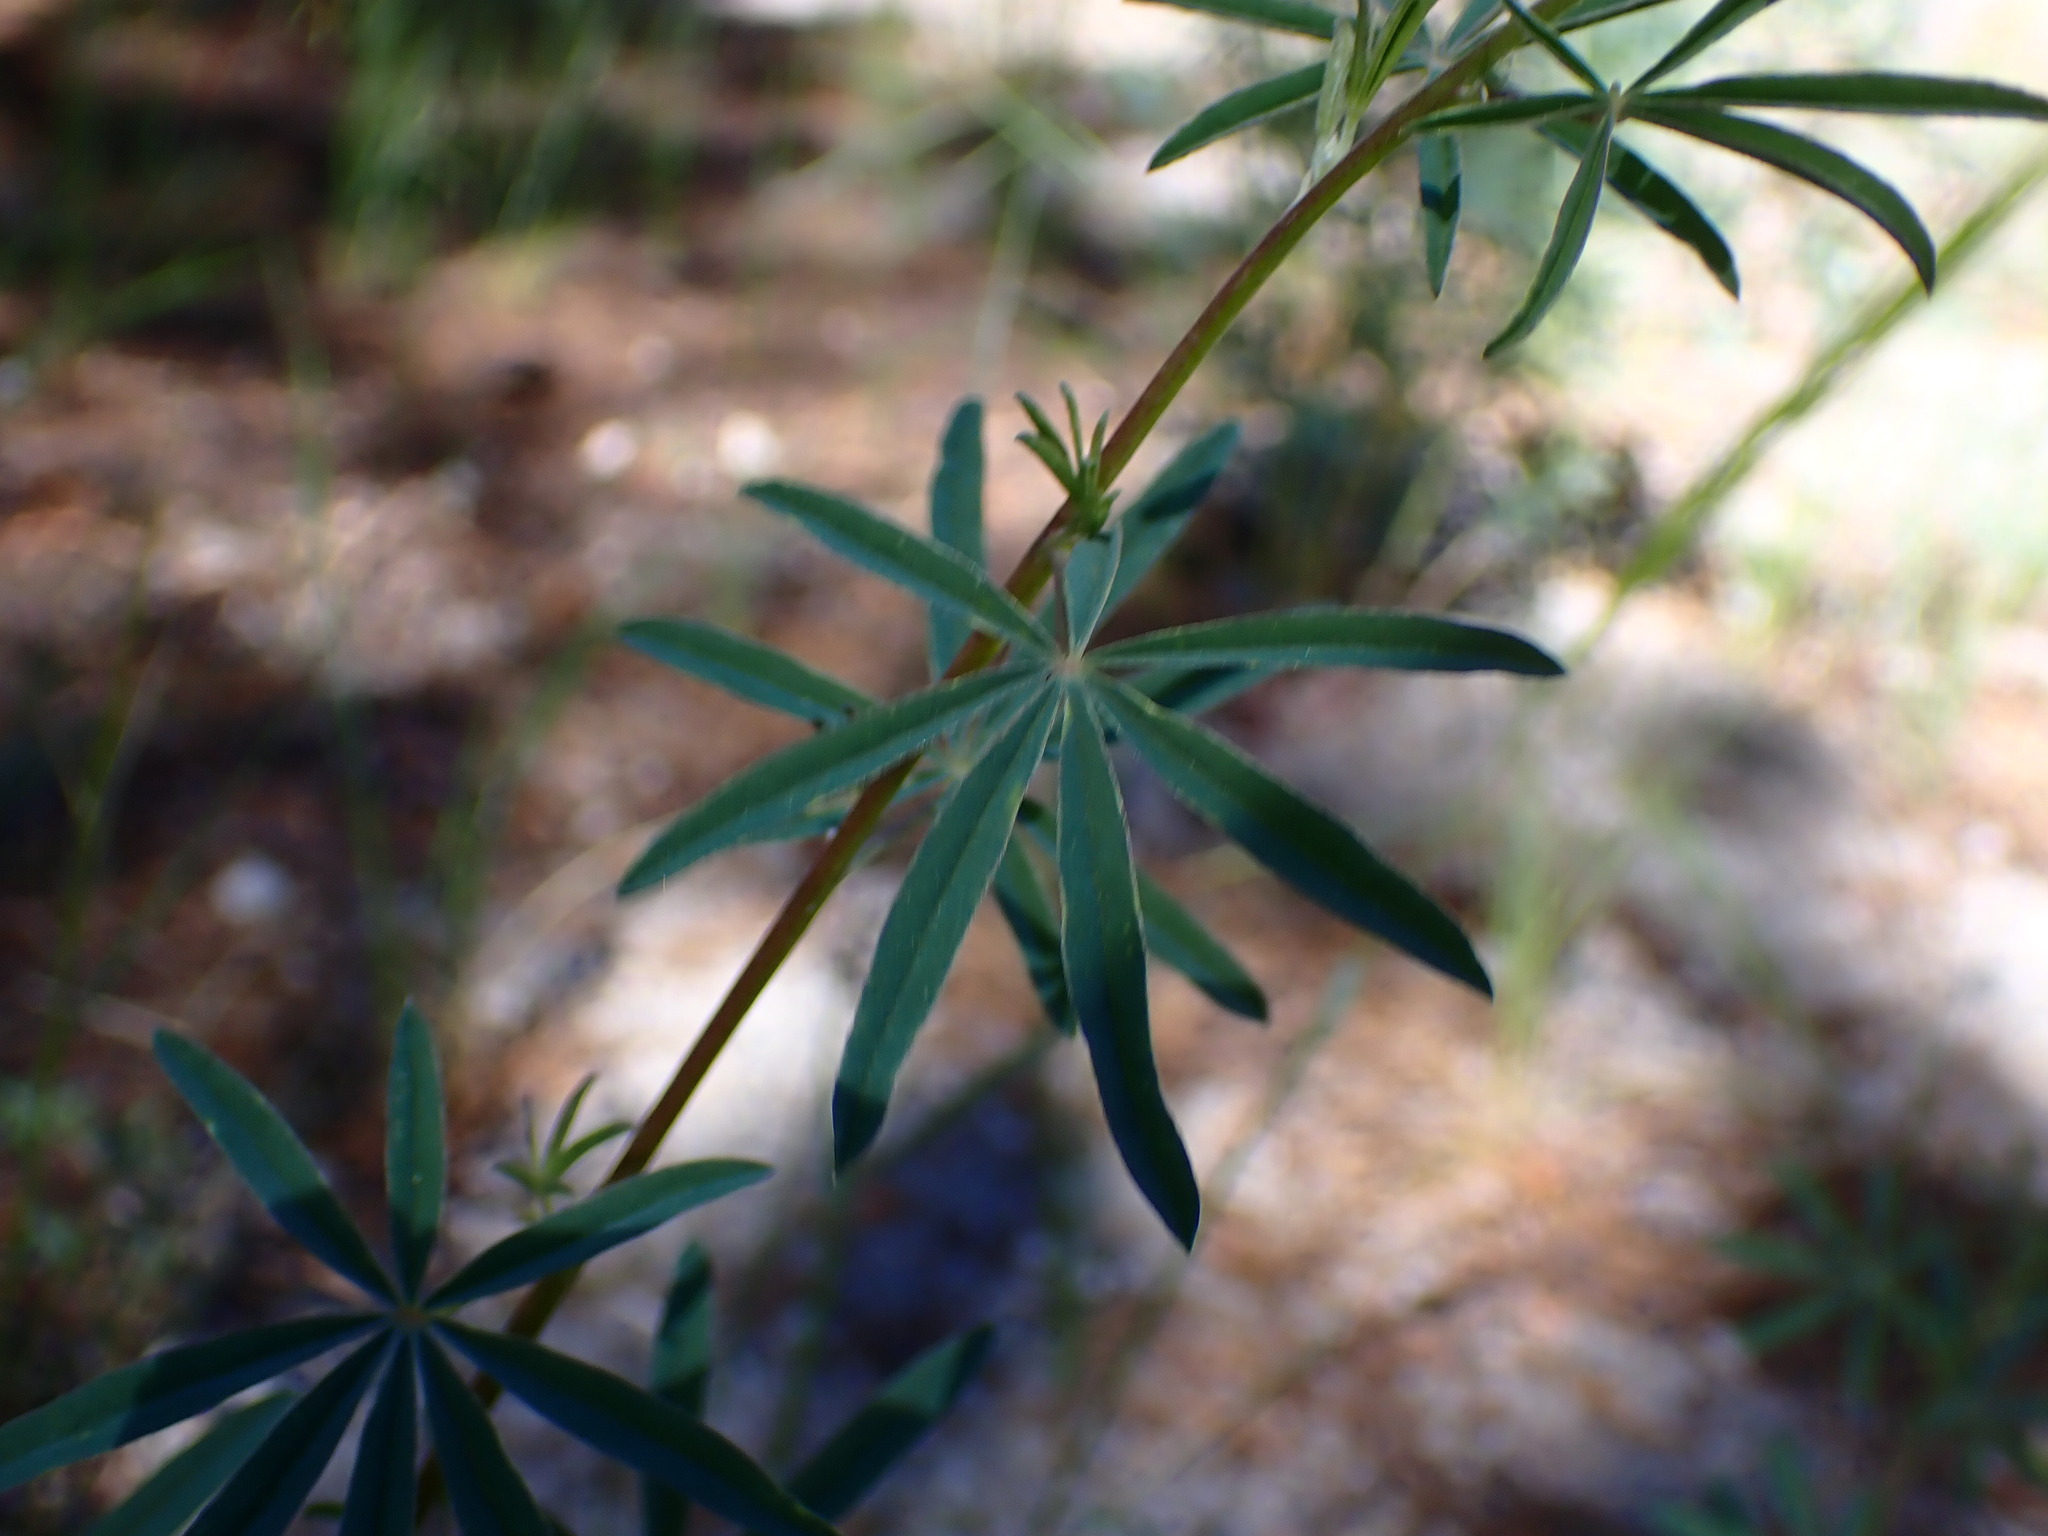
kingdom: Plantae
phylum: Tracheophyta
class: Magnoliopsida
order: Fabales
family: Fabaceae
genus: Lupinus
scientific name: Lupinus angustiflorus
